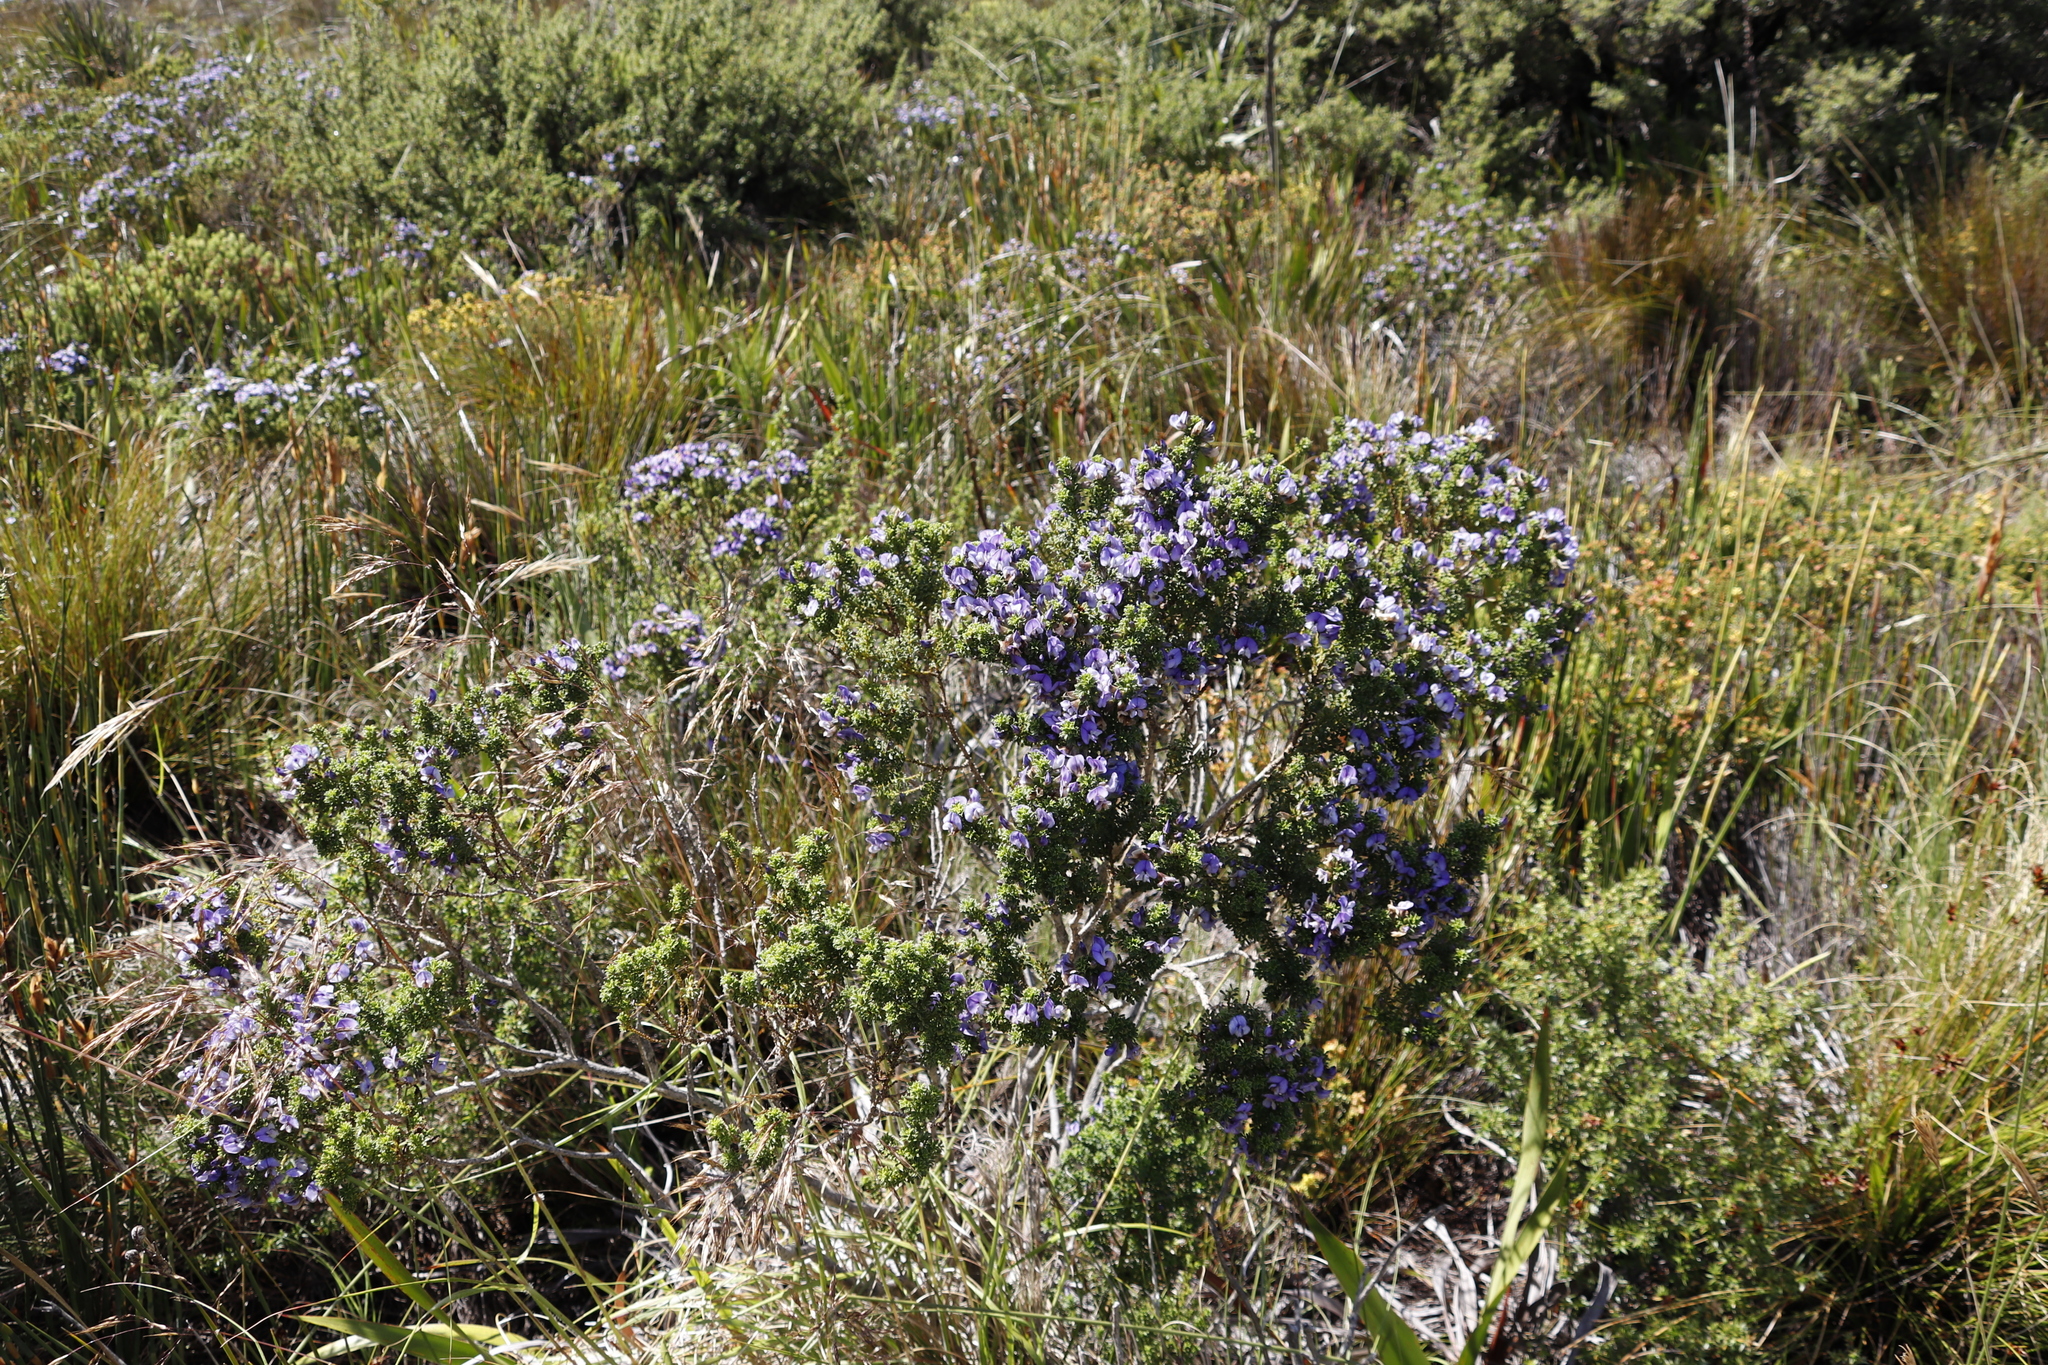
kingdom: Plantae
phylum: Tracheophyta
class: Magnoliopsida
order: Fabales
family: Fabaceae
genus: Psoralea
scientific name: Psoralea aculeata
